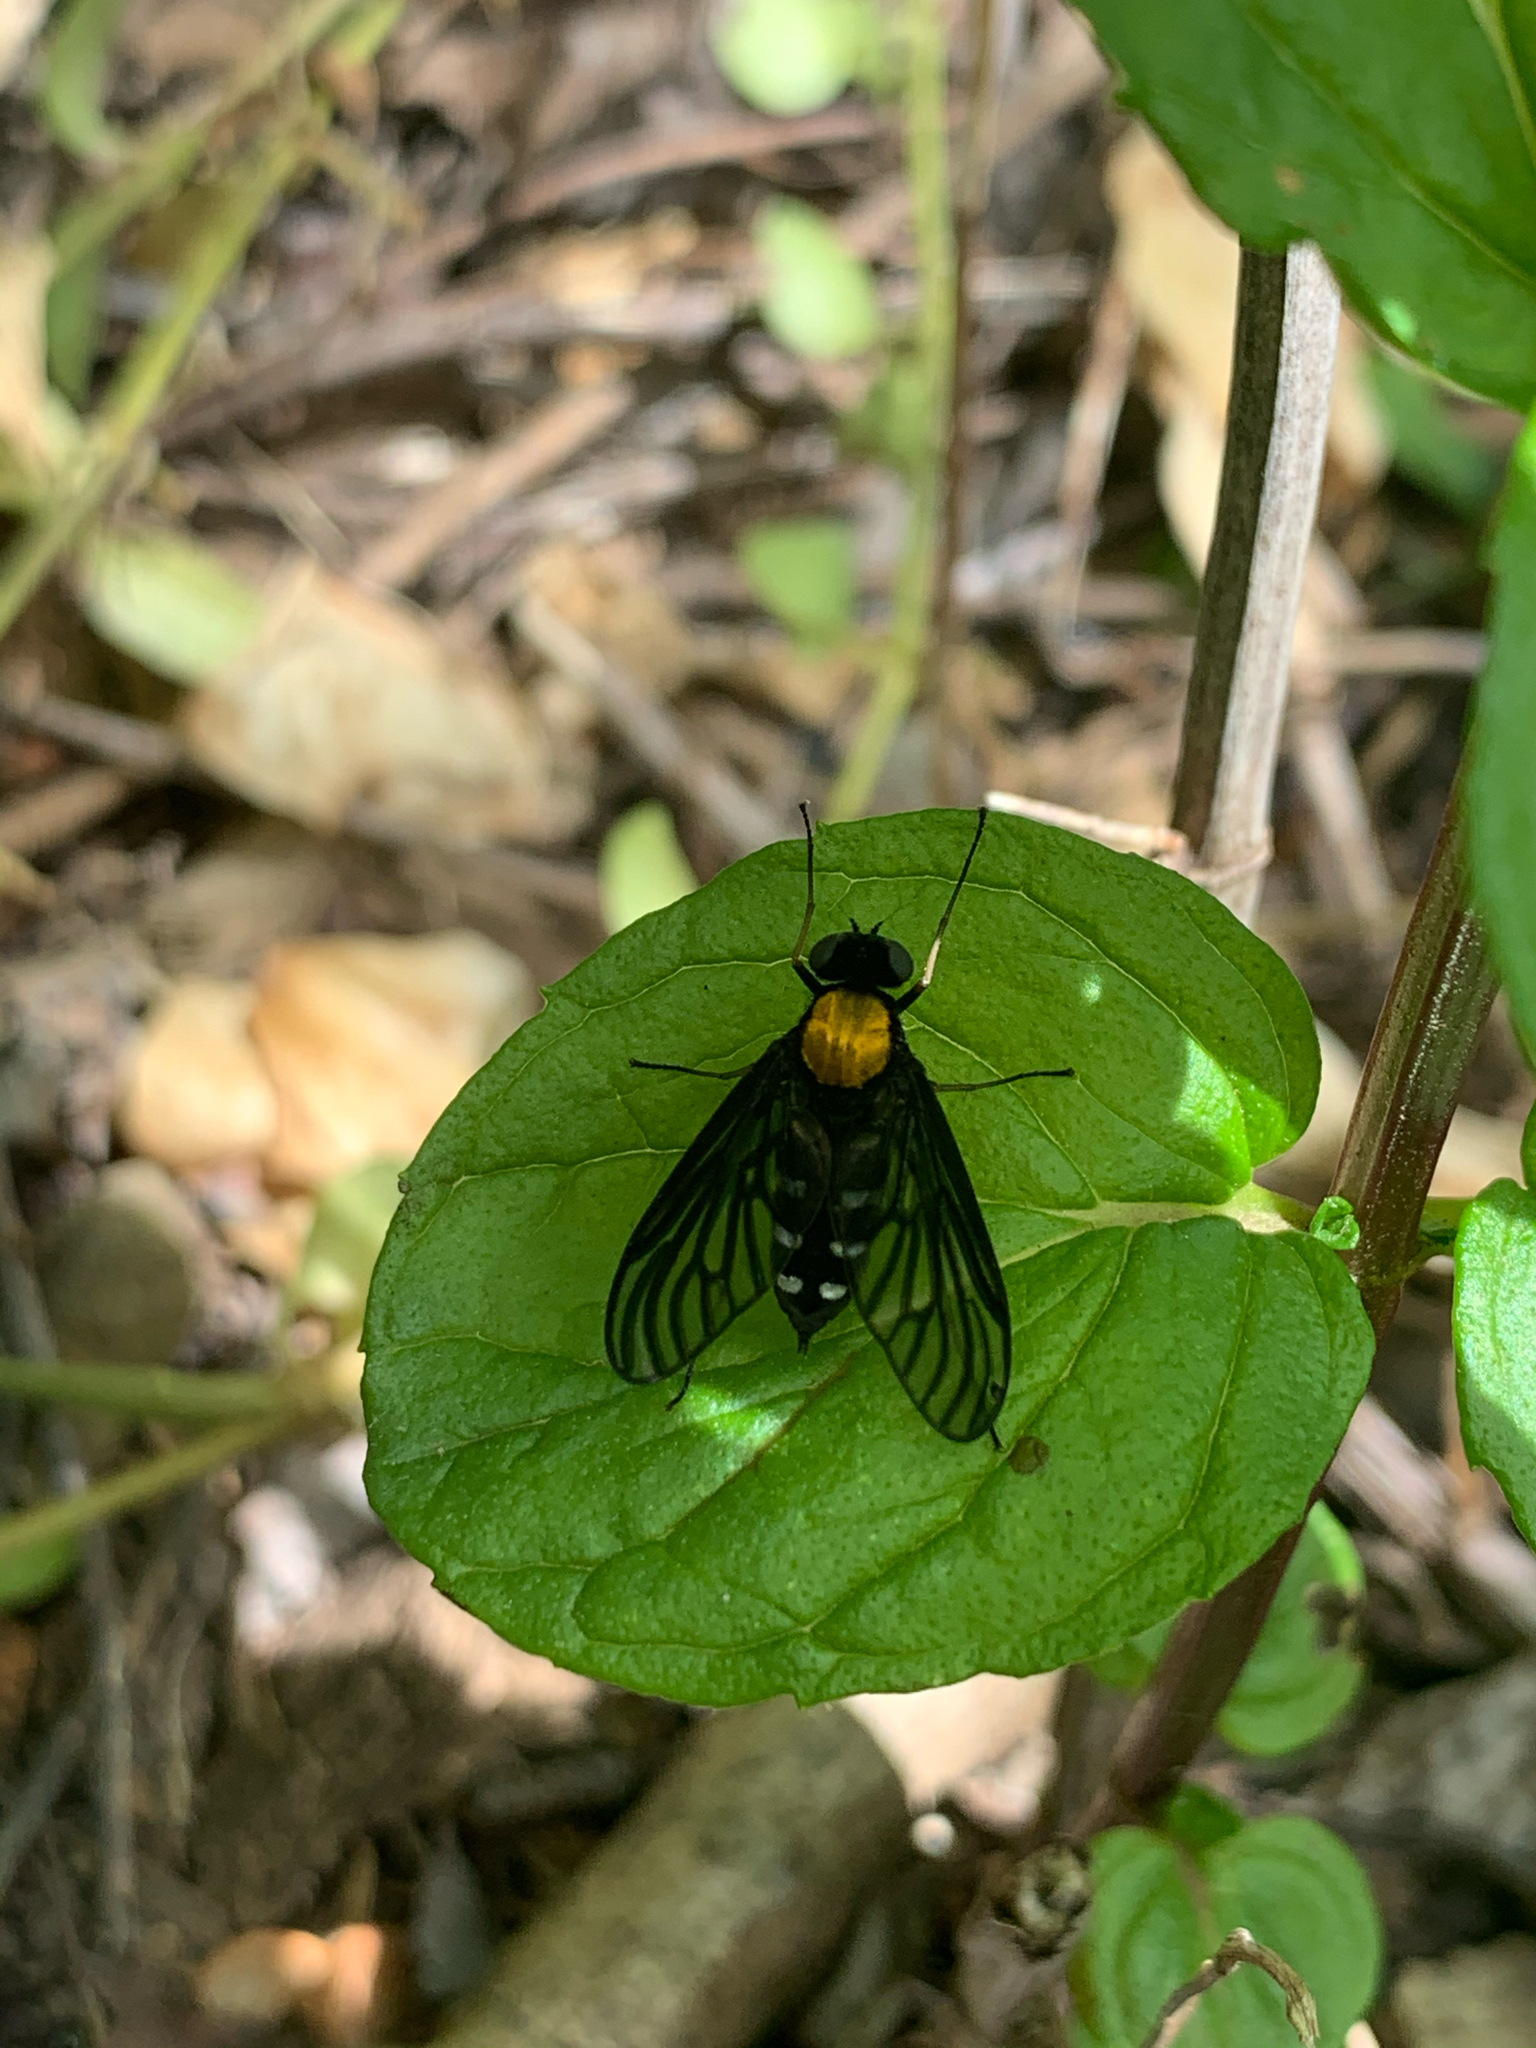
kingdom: Animalia
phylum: Arthropoda
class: Insecta
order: Diptera
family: Rhagionidae
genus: Chrysopilus
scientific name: Chrysopilus thoracicus
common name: Golden-backed snipe fly
